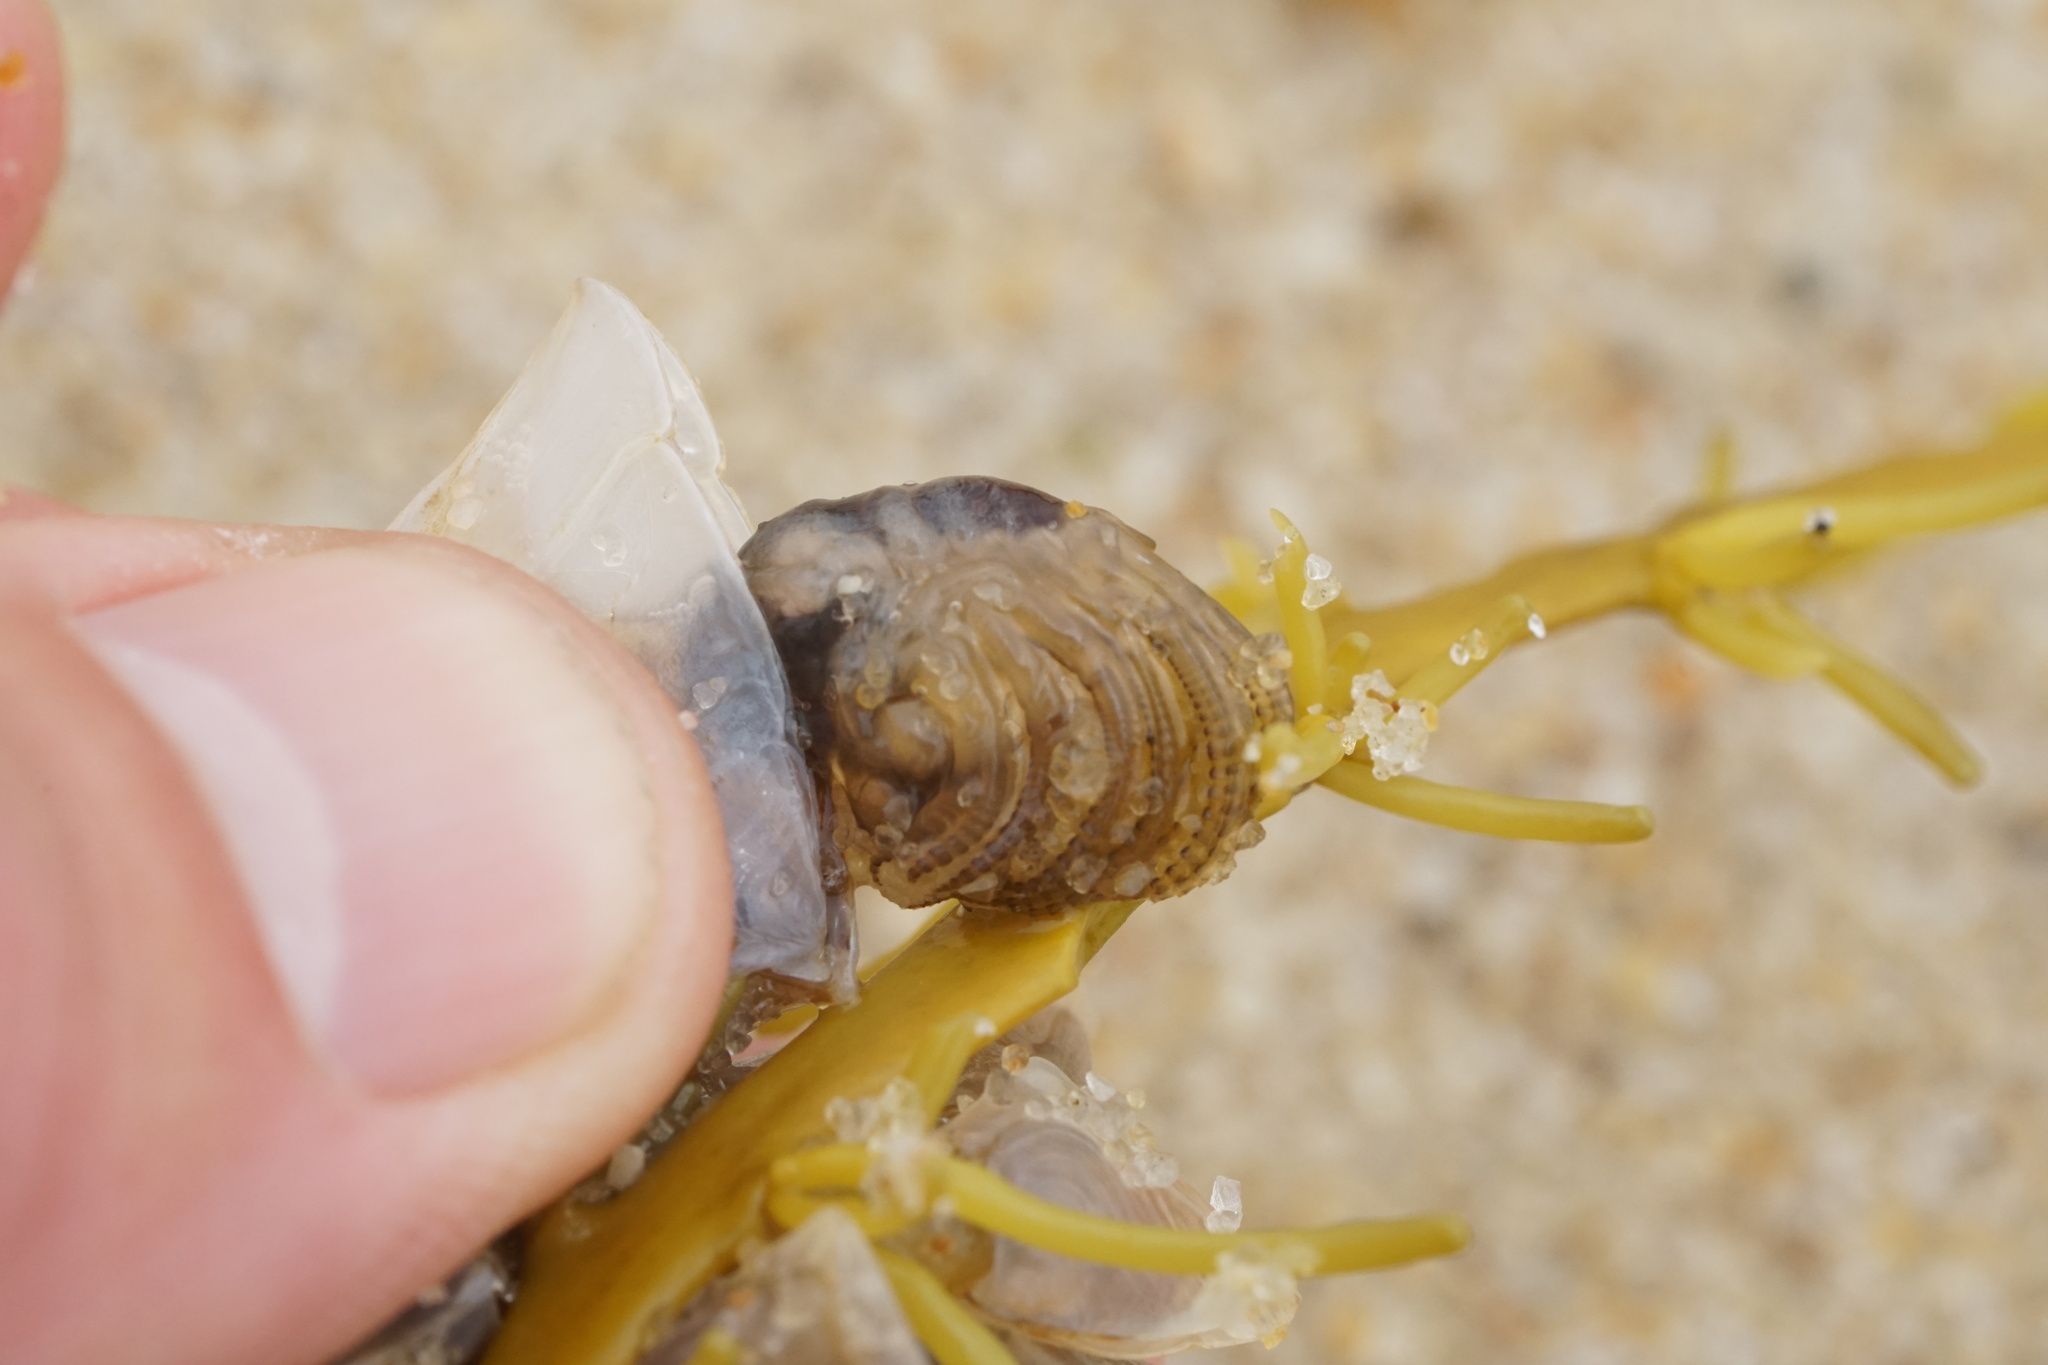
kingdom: Animalia
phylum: Arthropoda
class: Maxillopoda
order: Pedunculata
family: Lepadidae
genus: Dosima
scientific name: Dosima fascicularis
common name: Buoy barnacle
